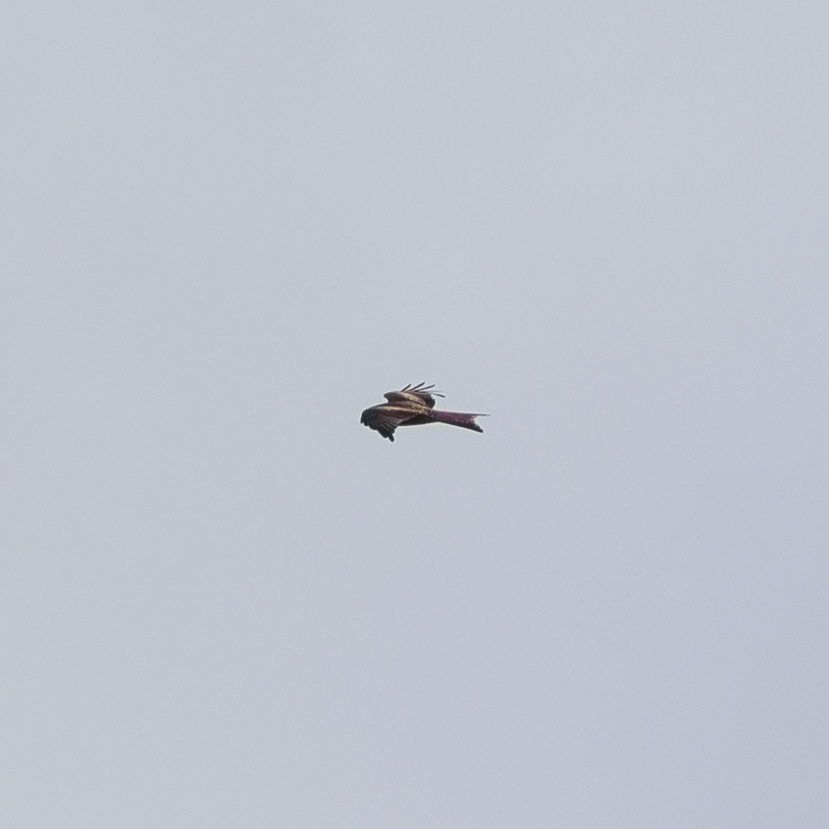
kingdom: Animalia
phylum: Chordata
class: Aves
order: Accipitriformes
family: Accipitridae
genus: Milvus
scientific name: Milvus milvus
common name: Red kite
